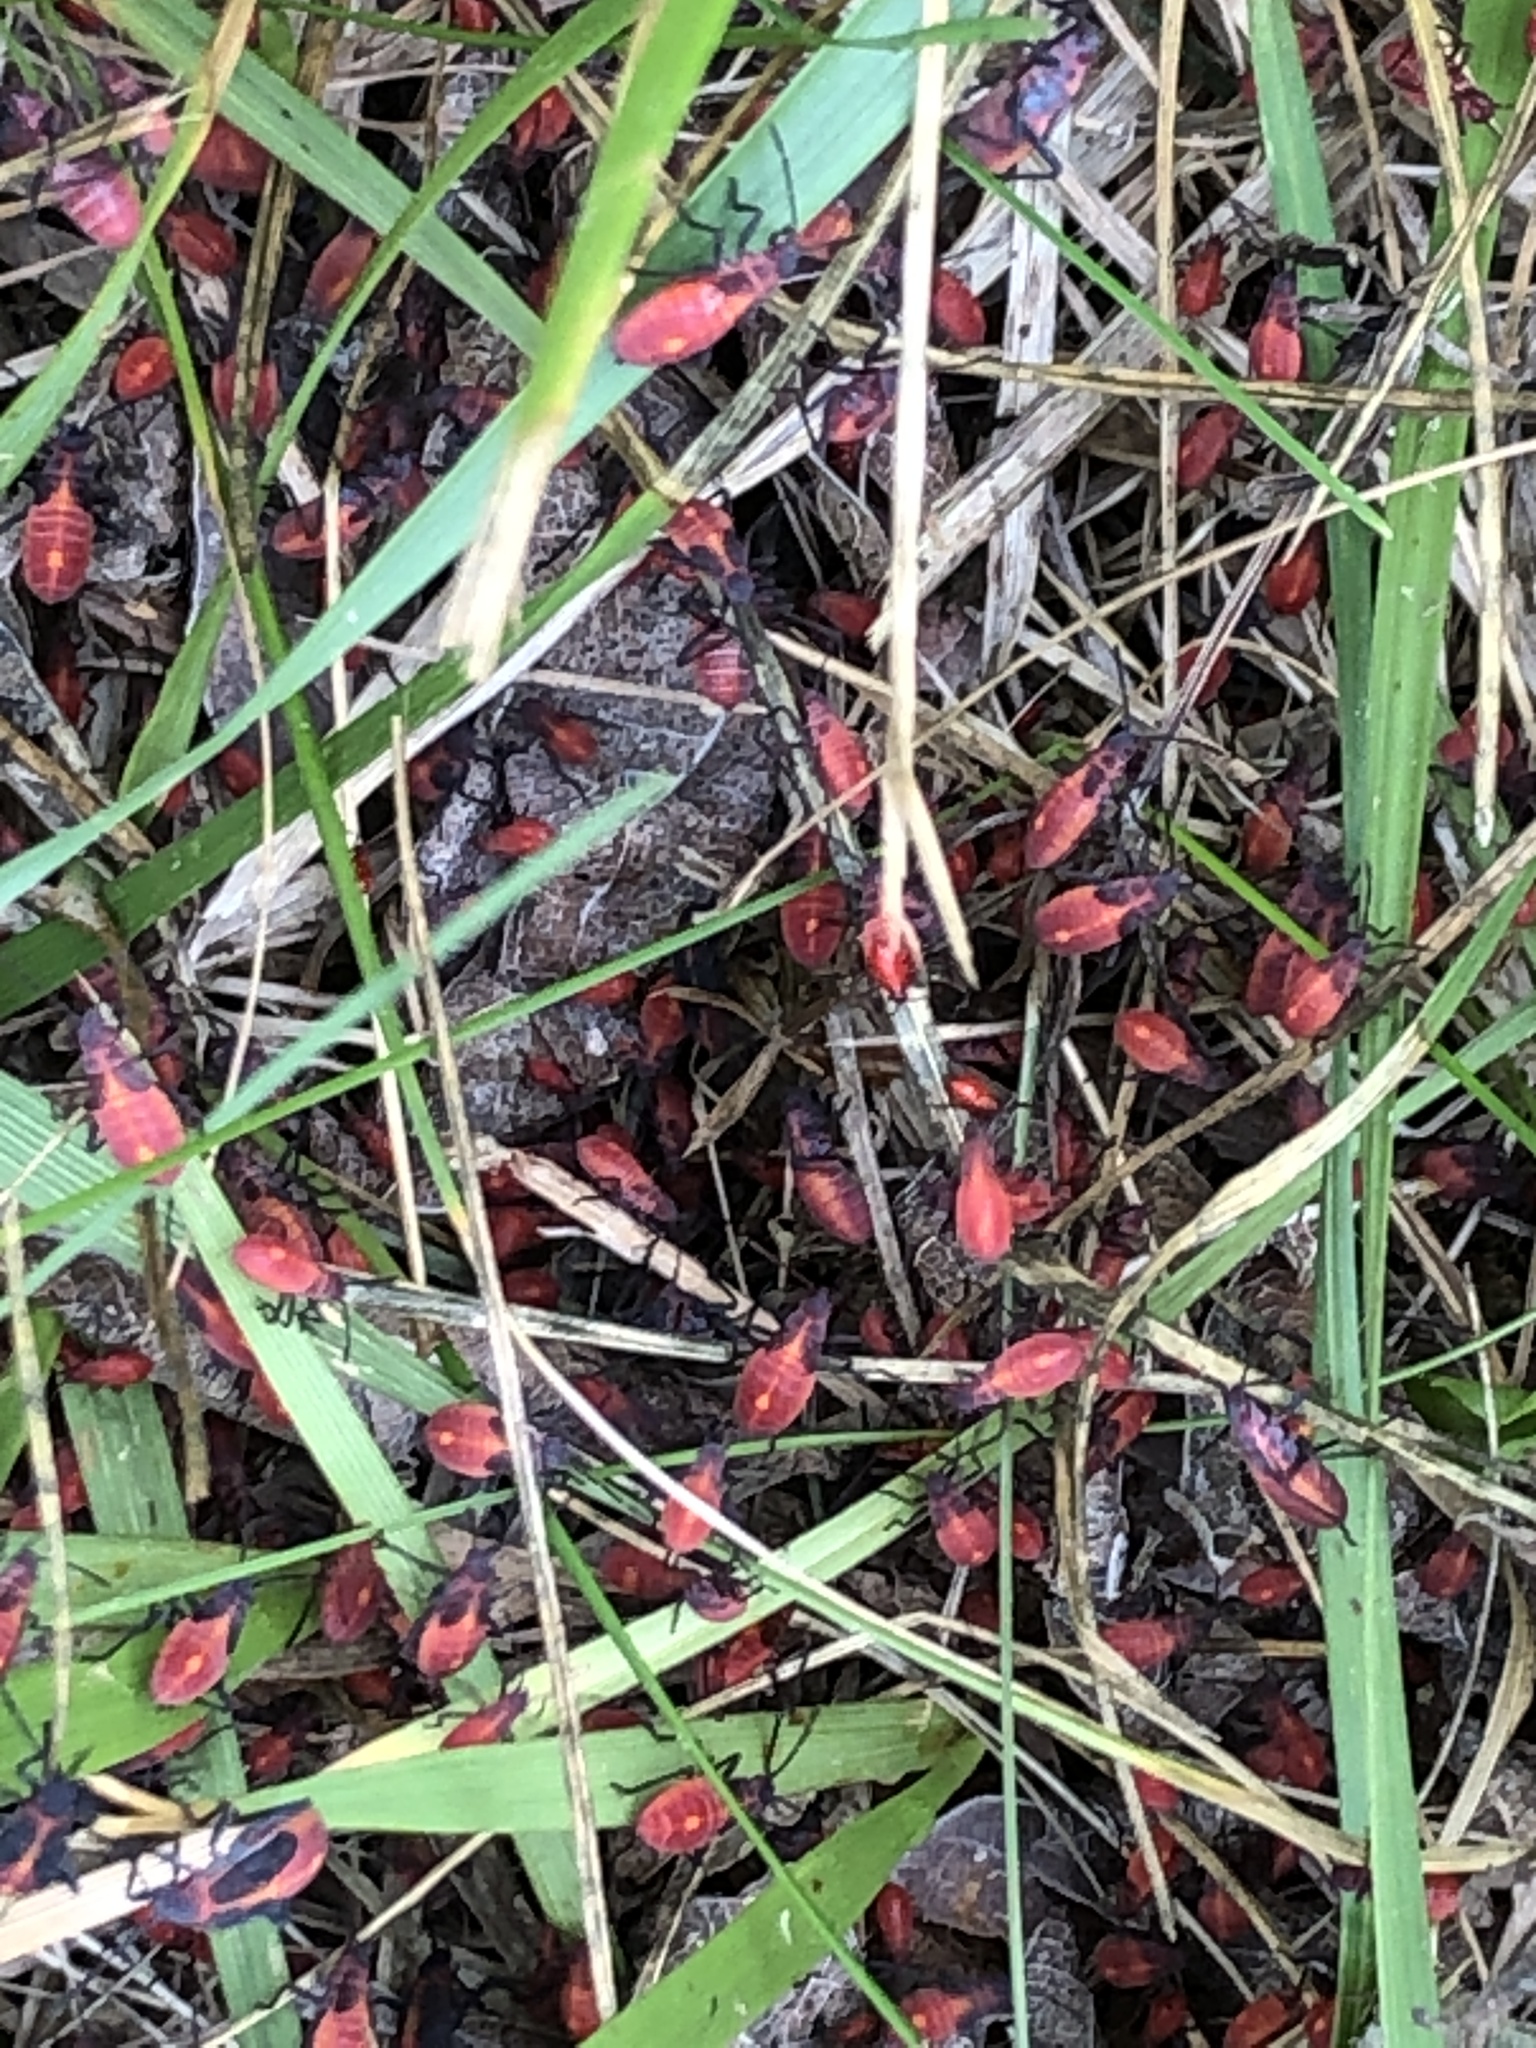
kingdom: Animalia
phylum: Arthropoda
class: Insecta
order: Hemiptera
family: Rhopalidae
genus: Boisea
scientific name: Boisea trivittata
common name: Boxelder bug
